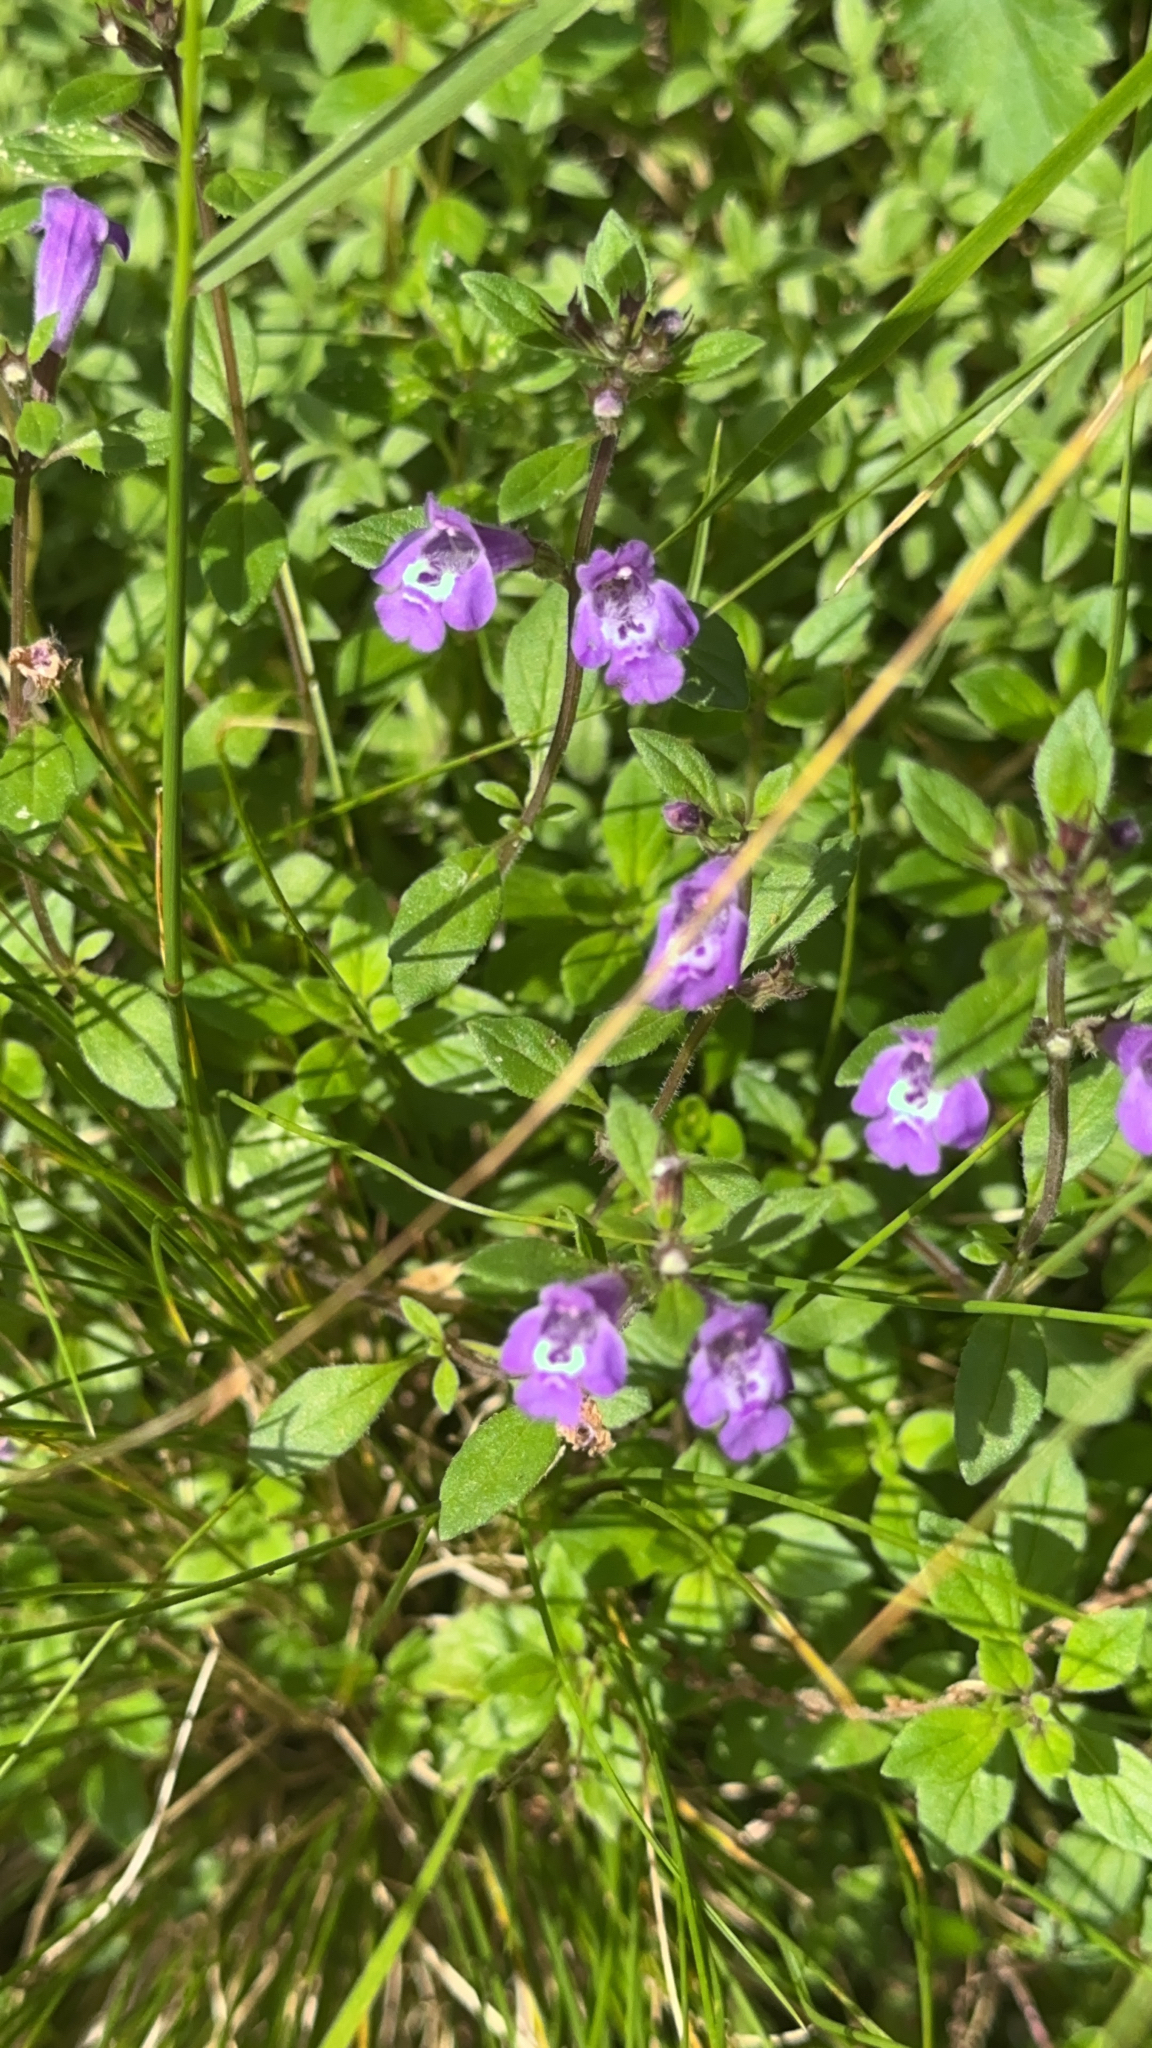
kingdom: Plantae
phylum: Tracheophyta
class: Magnoliopsida
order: Lamiales
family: Lamiaceae
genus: Clinopodium
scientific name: Clinopodium alpinum
